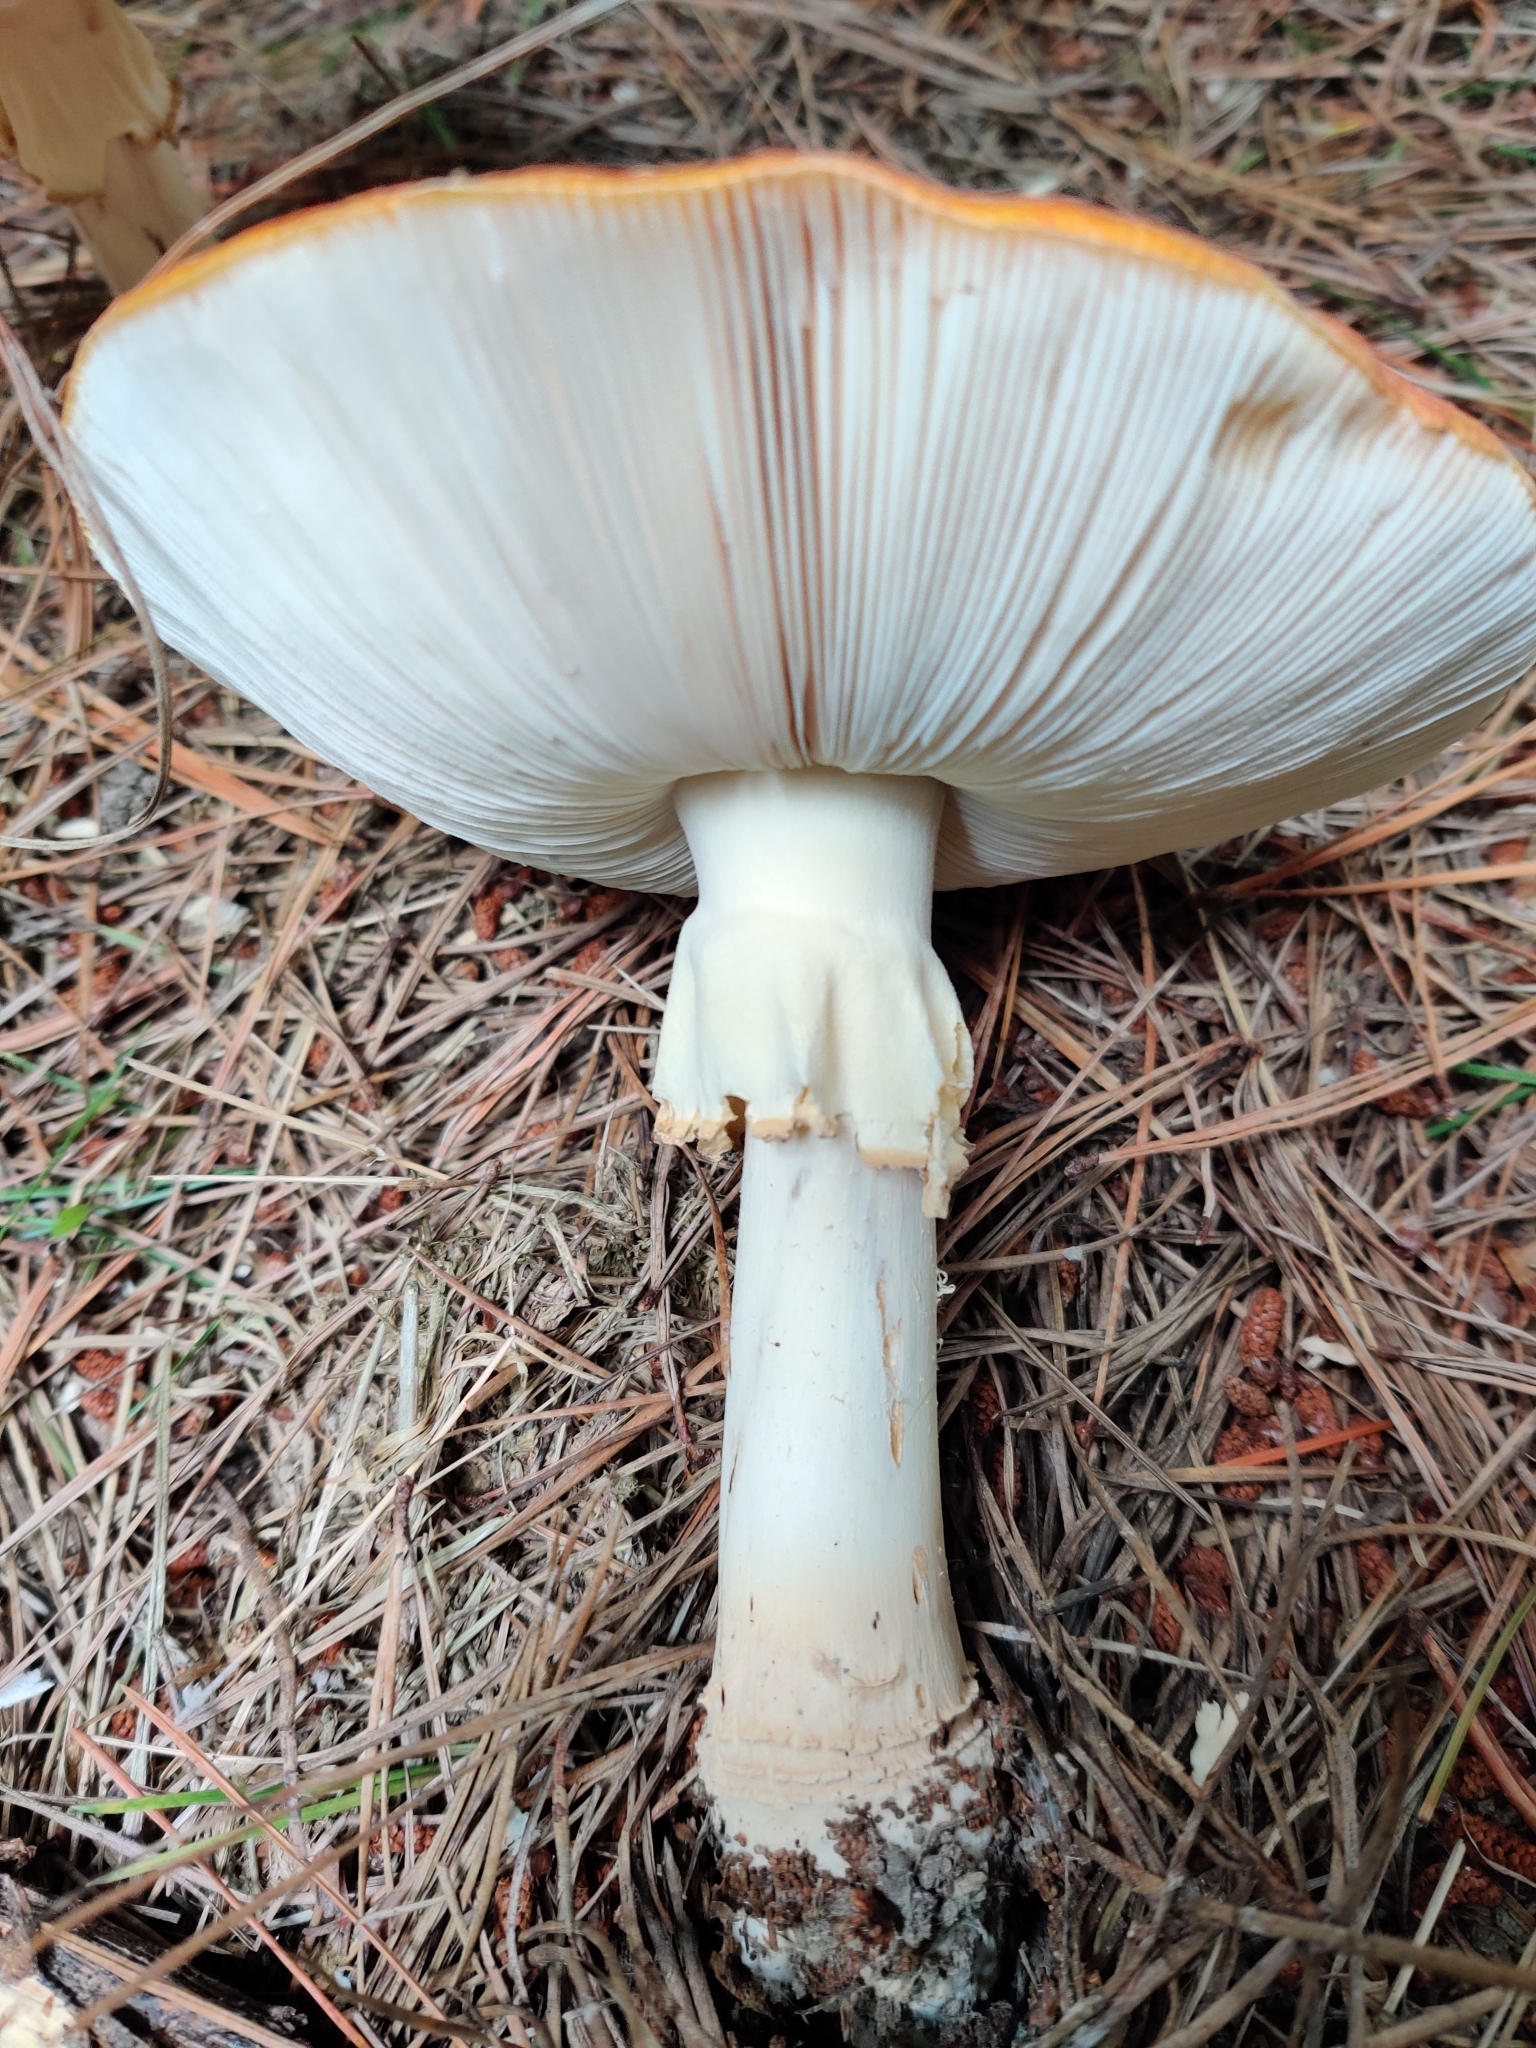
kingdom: Fungi
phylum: Basidiomycota
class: Agaricomycetes
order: Agaricales
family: Amanitaceae
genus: Amanita
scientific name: Amanita muscaria
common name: Fly agaric
